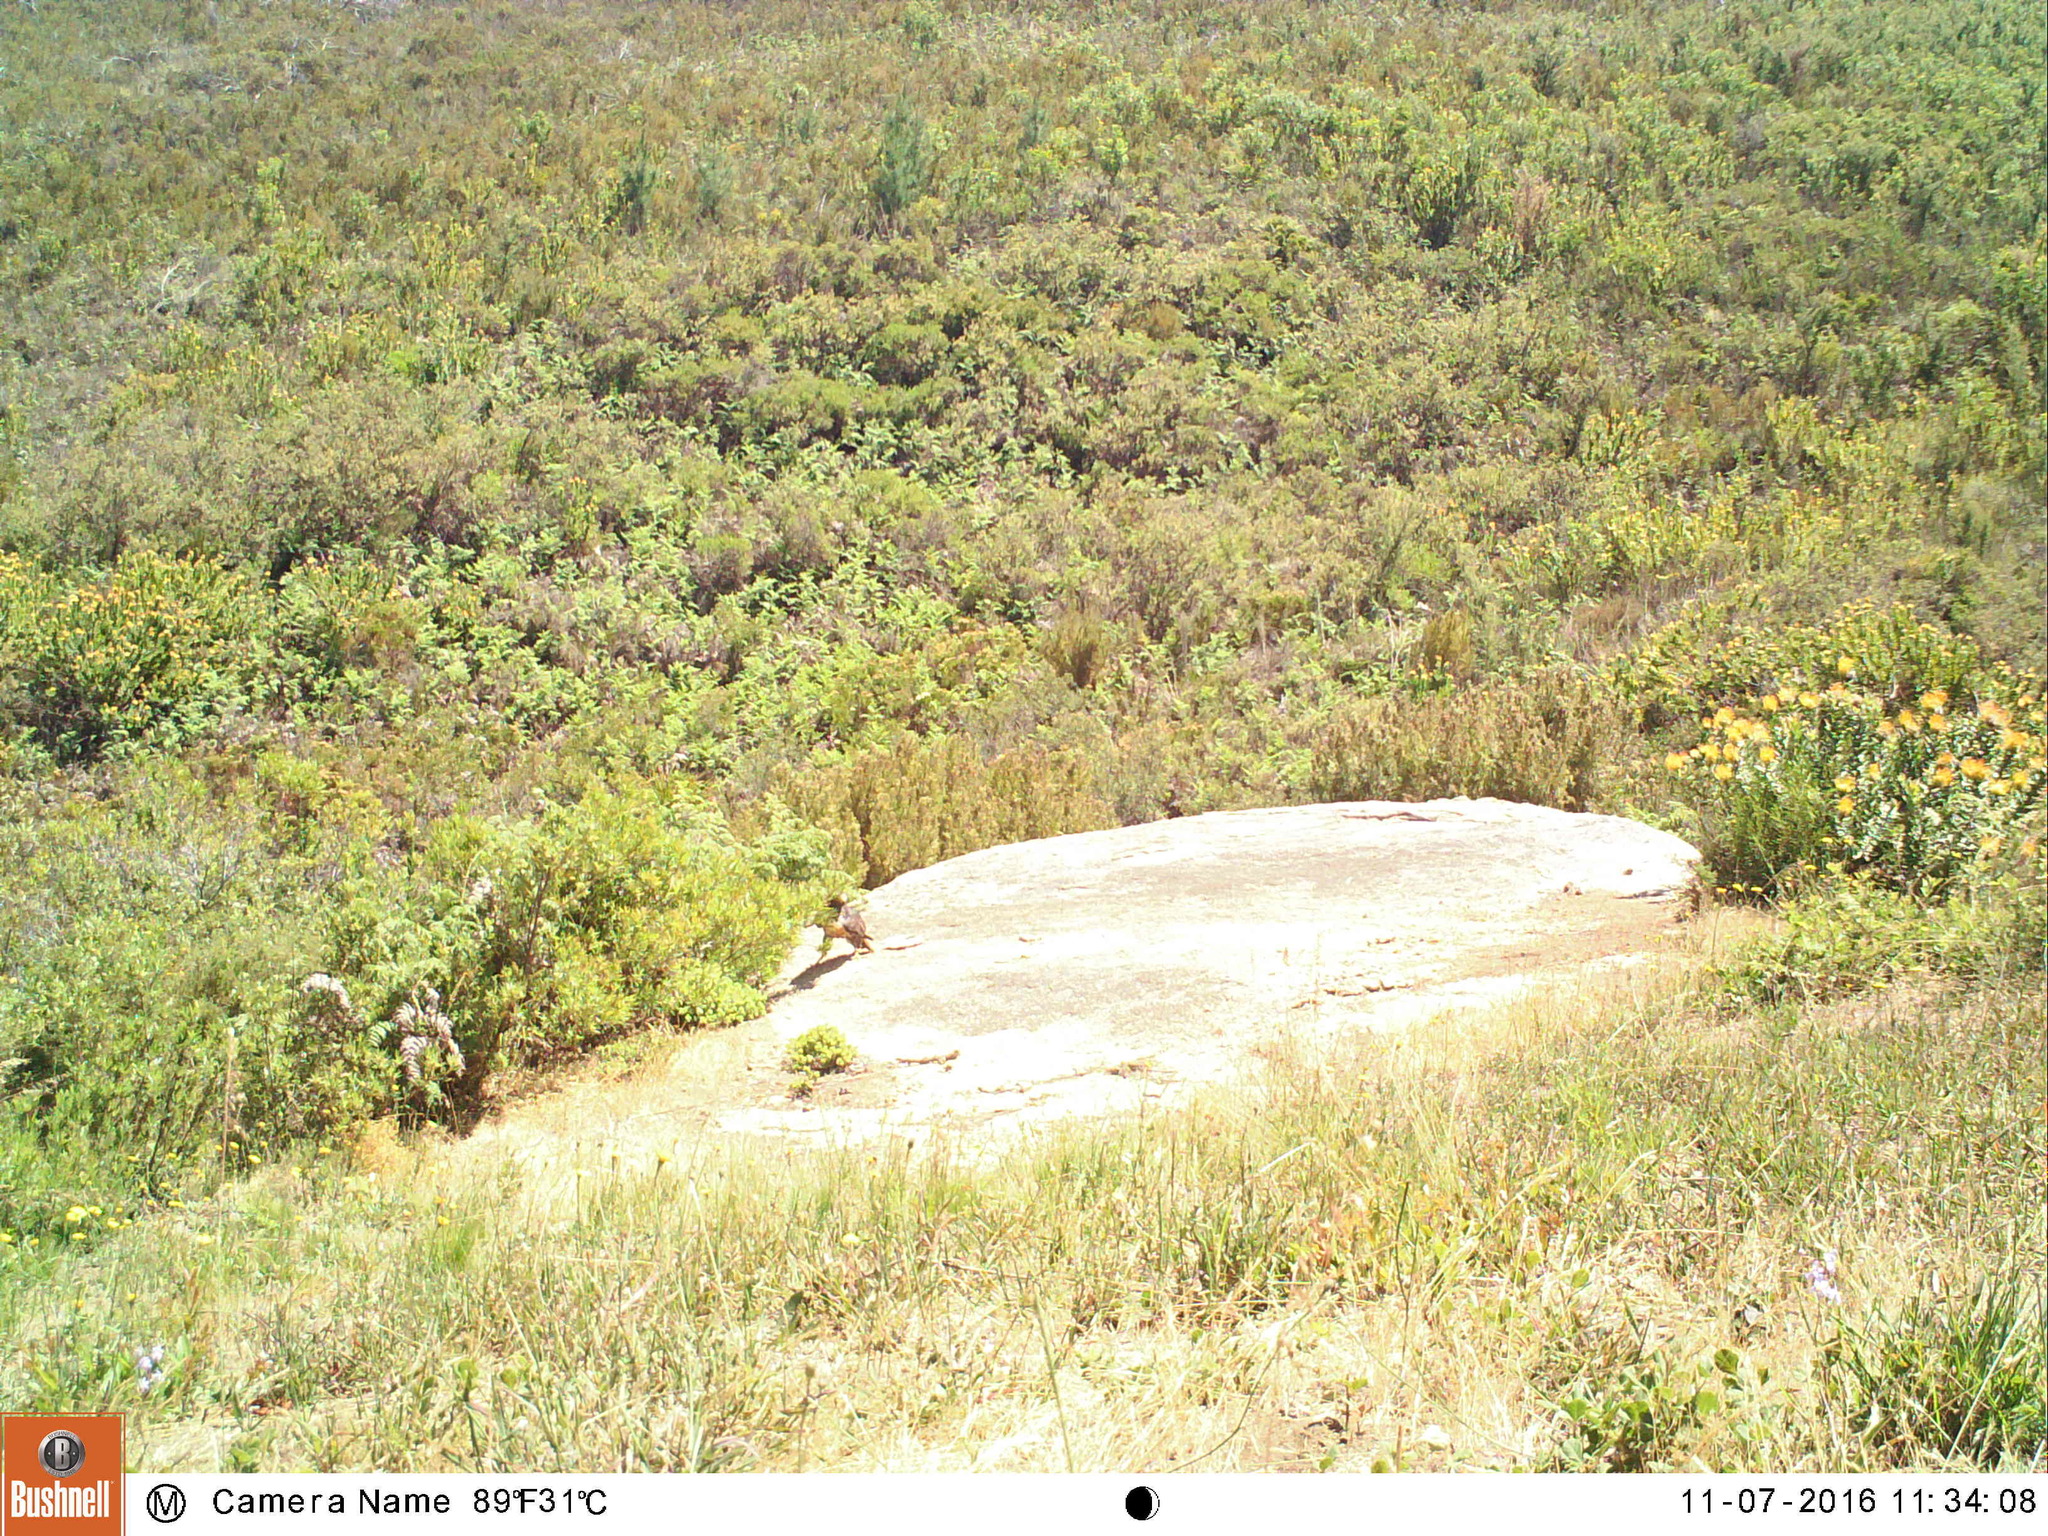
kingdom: Animalia
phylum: Chordata
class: Aves
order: Accipitriformes
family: Accipitridae
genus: Buteo
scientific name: Buteo rufofuscus
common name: Jackal buzzard
